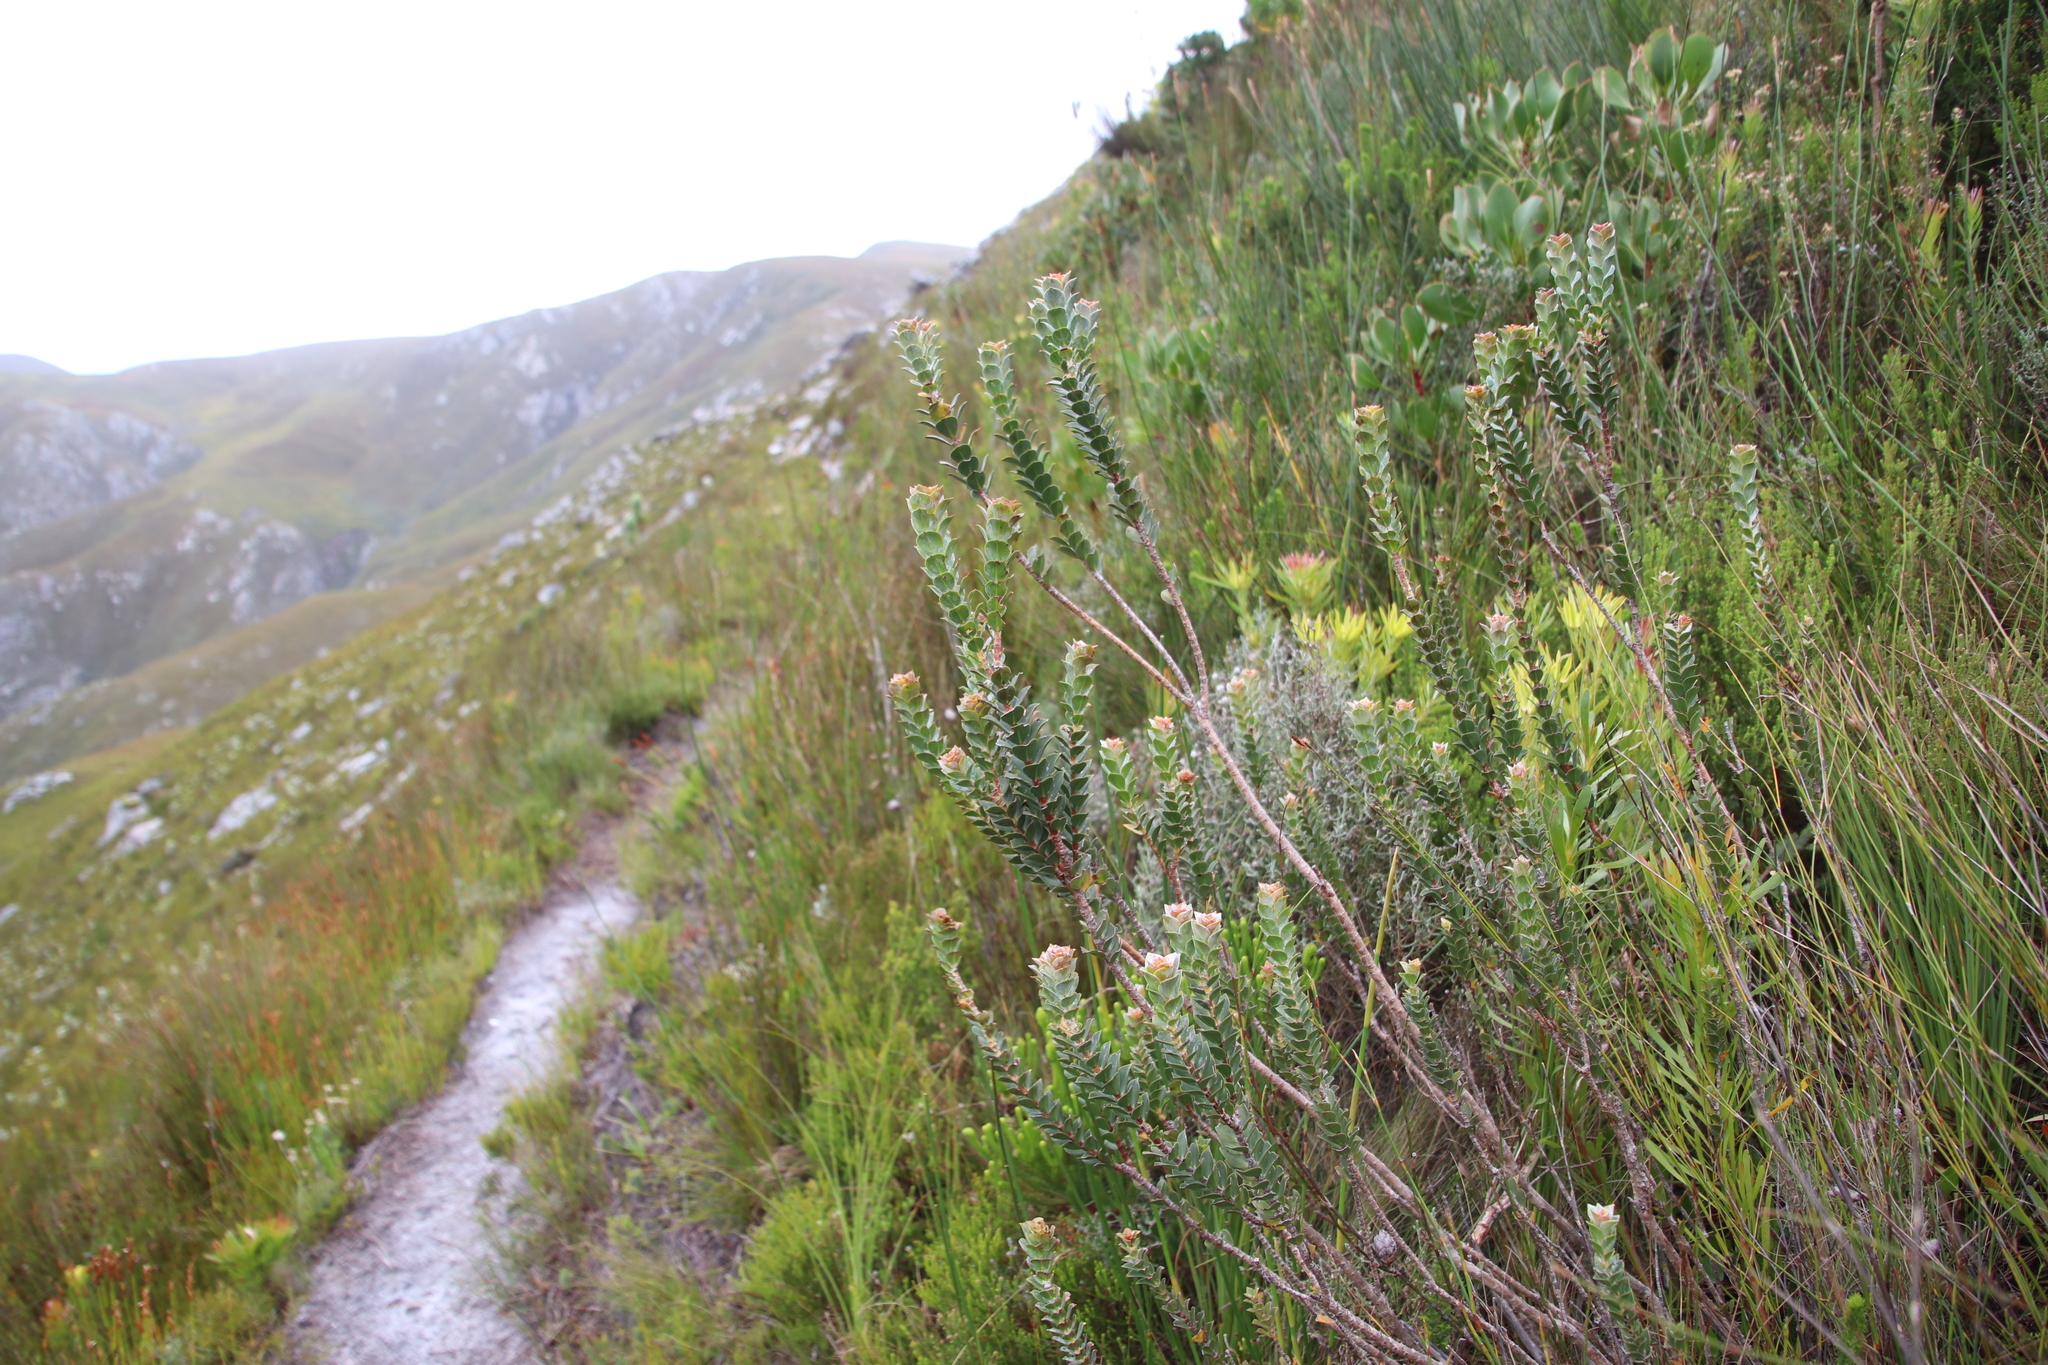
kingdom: Plantae
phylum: Tracheophyta
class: Magnoliopsida
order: Myrtales
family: Penaeaceae
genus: Saltera
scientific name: Saltera sarcocolla
